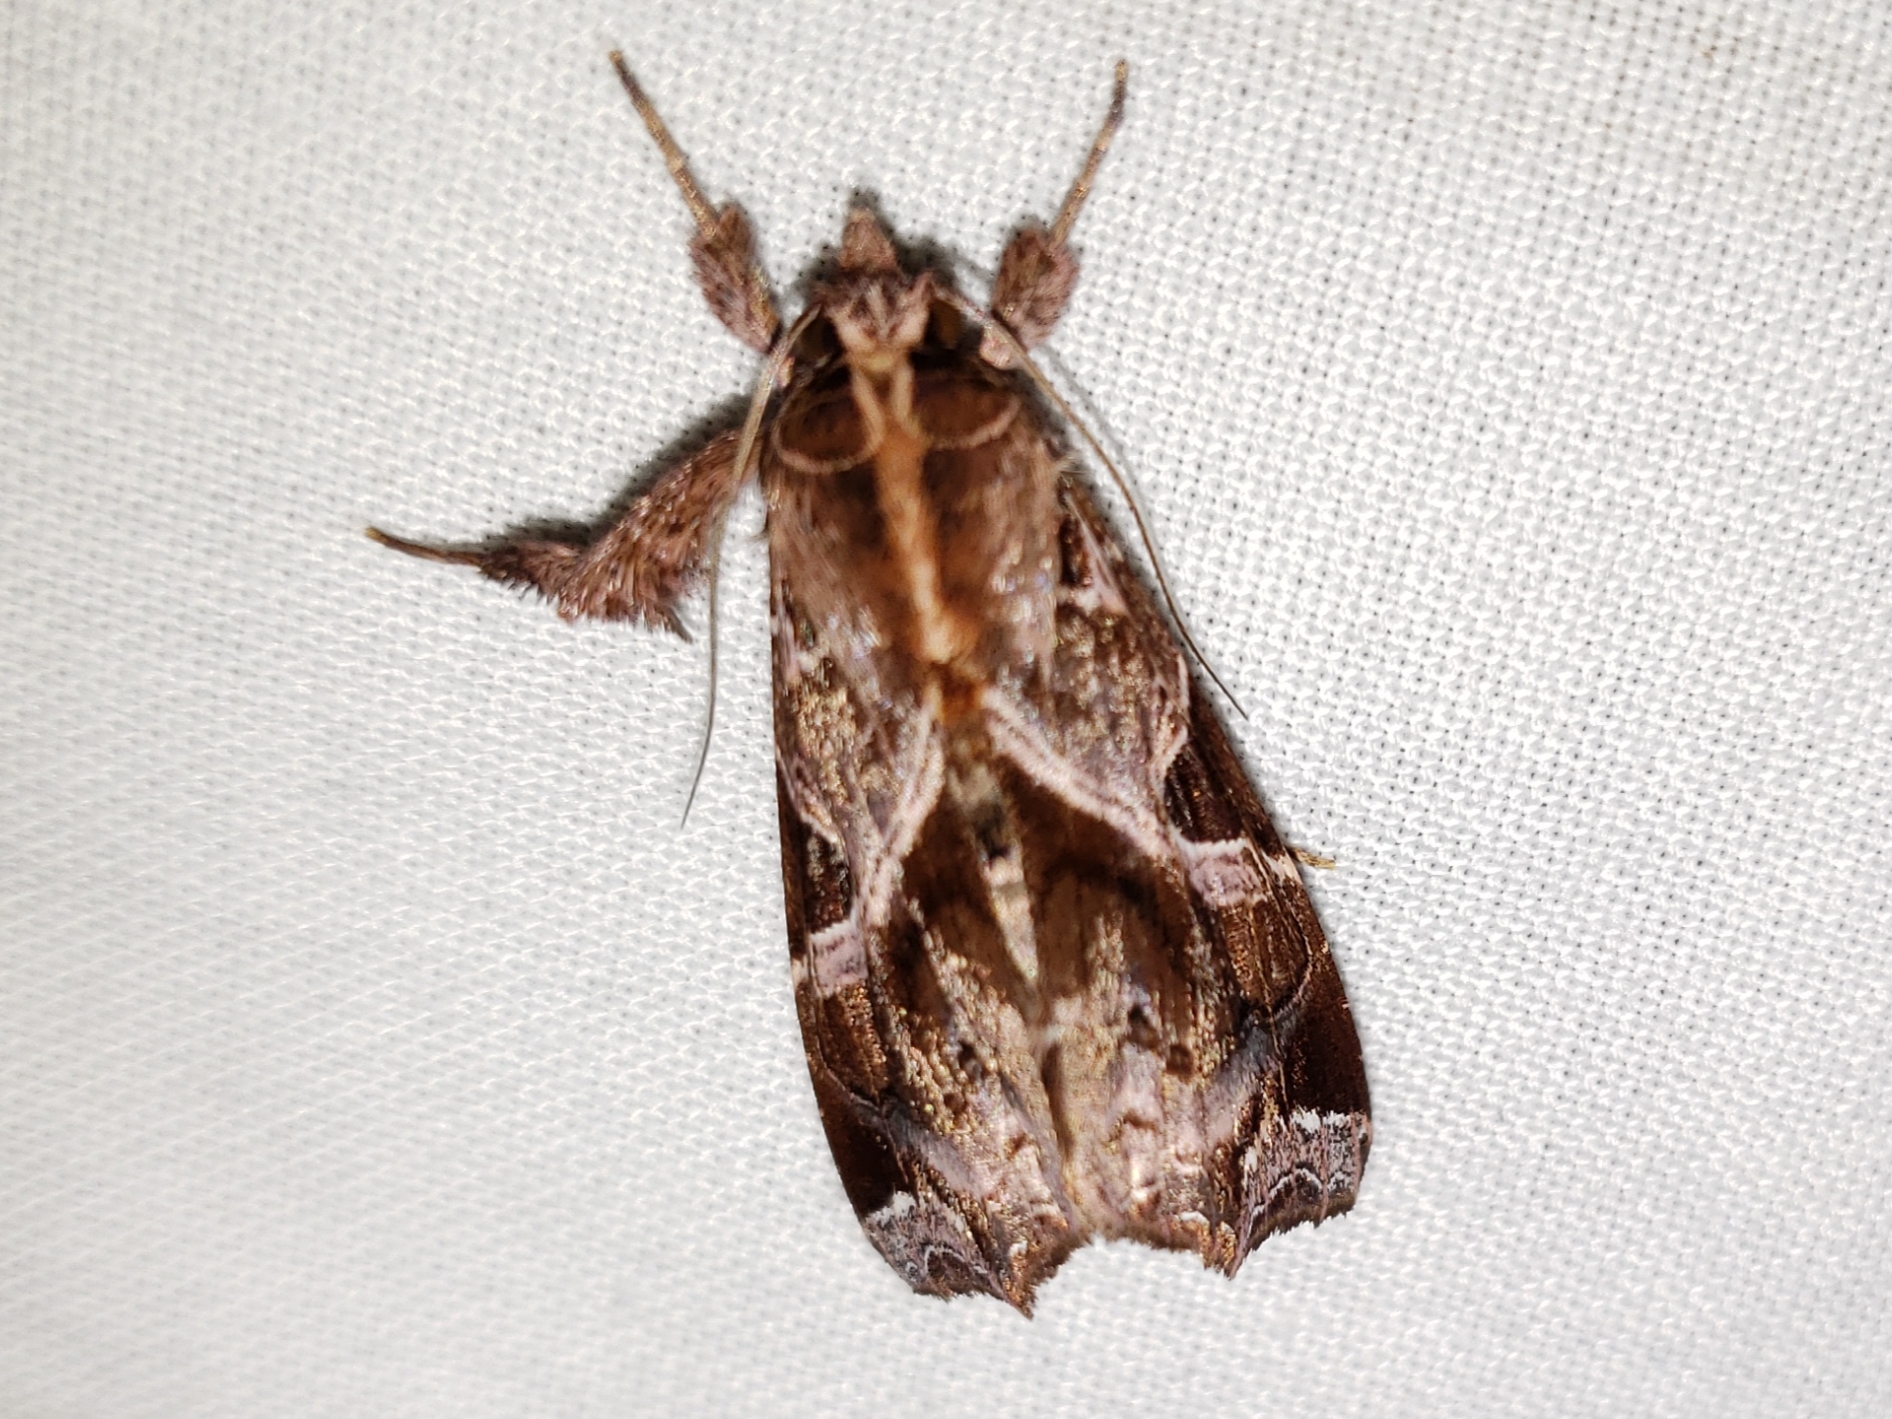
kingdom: Animalia
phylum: Arthropoda
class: Insecta
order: Lepidoptera
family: Noctuidae
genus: Callopistria
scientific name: Callopistria floridensis
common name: Florida fern moth
